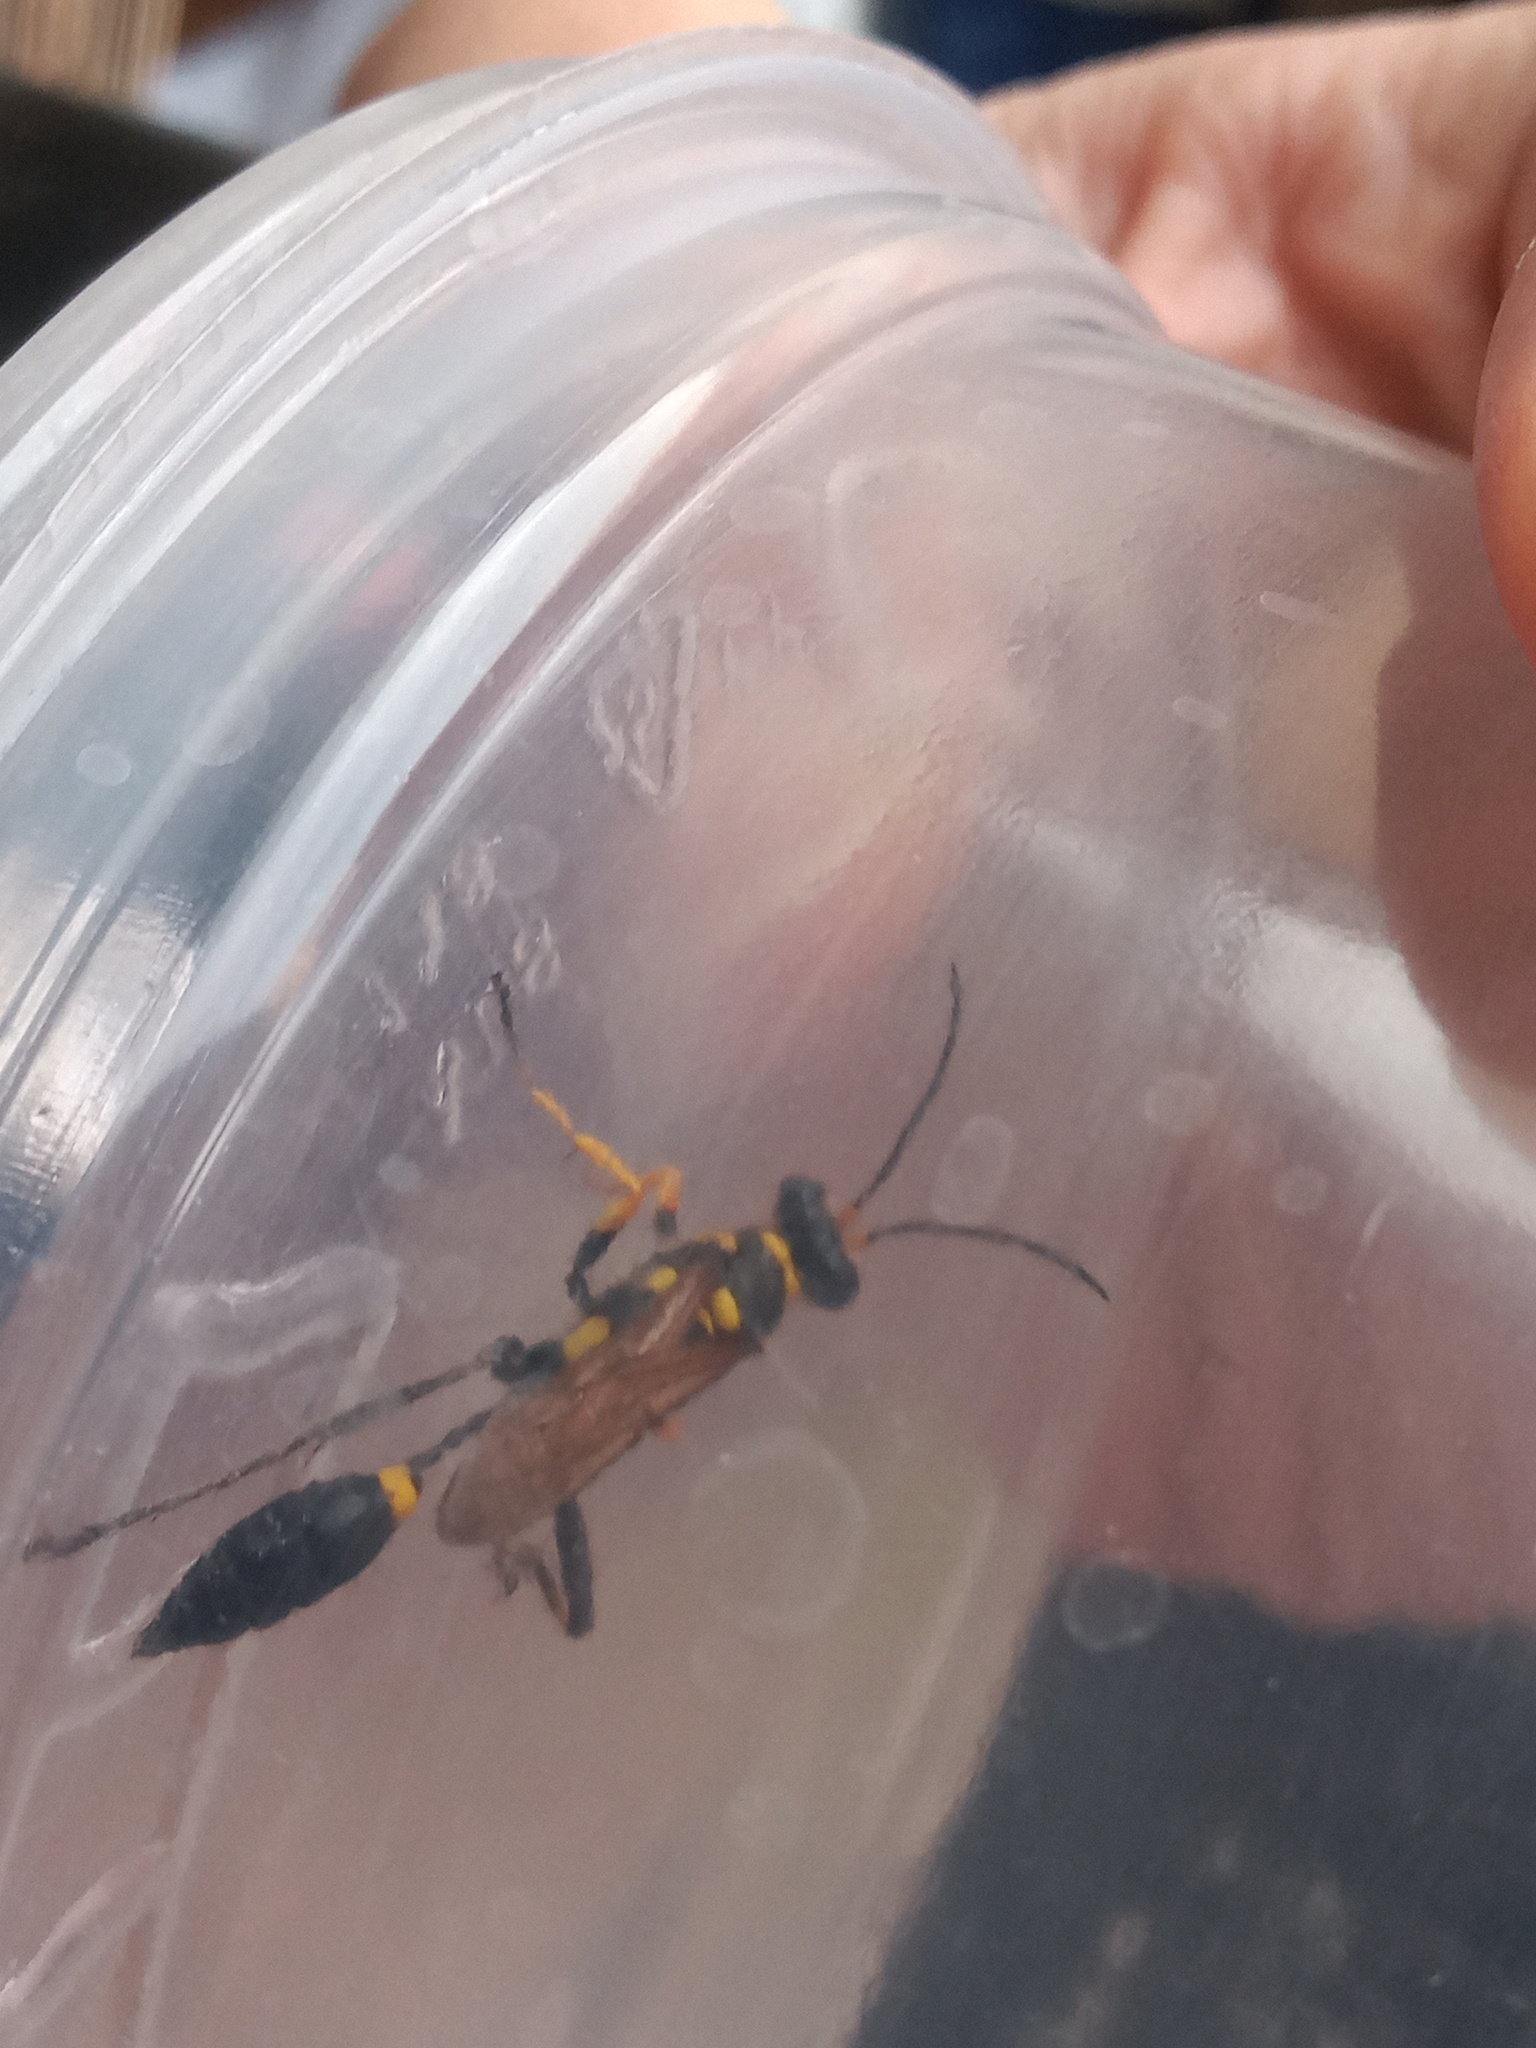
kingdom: Animalia
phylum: Arthropoda
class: Insecta
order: Hymenoptera
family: Sphecidae
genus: Sceliphron
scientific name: Sceliphron assimile
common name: Clayman's mud dauber
